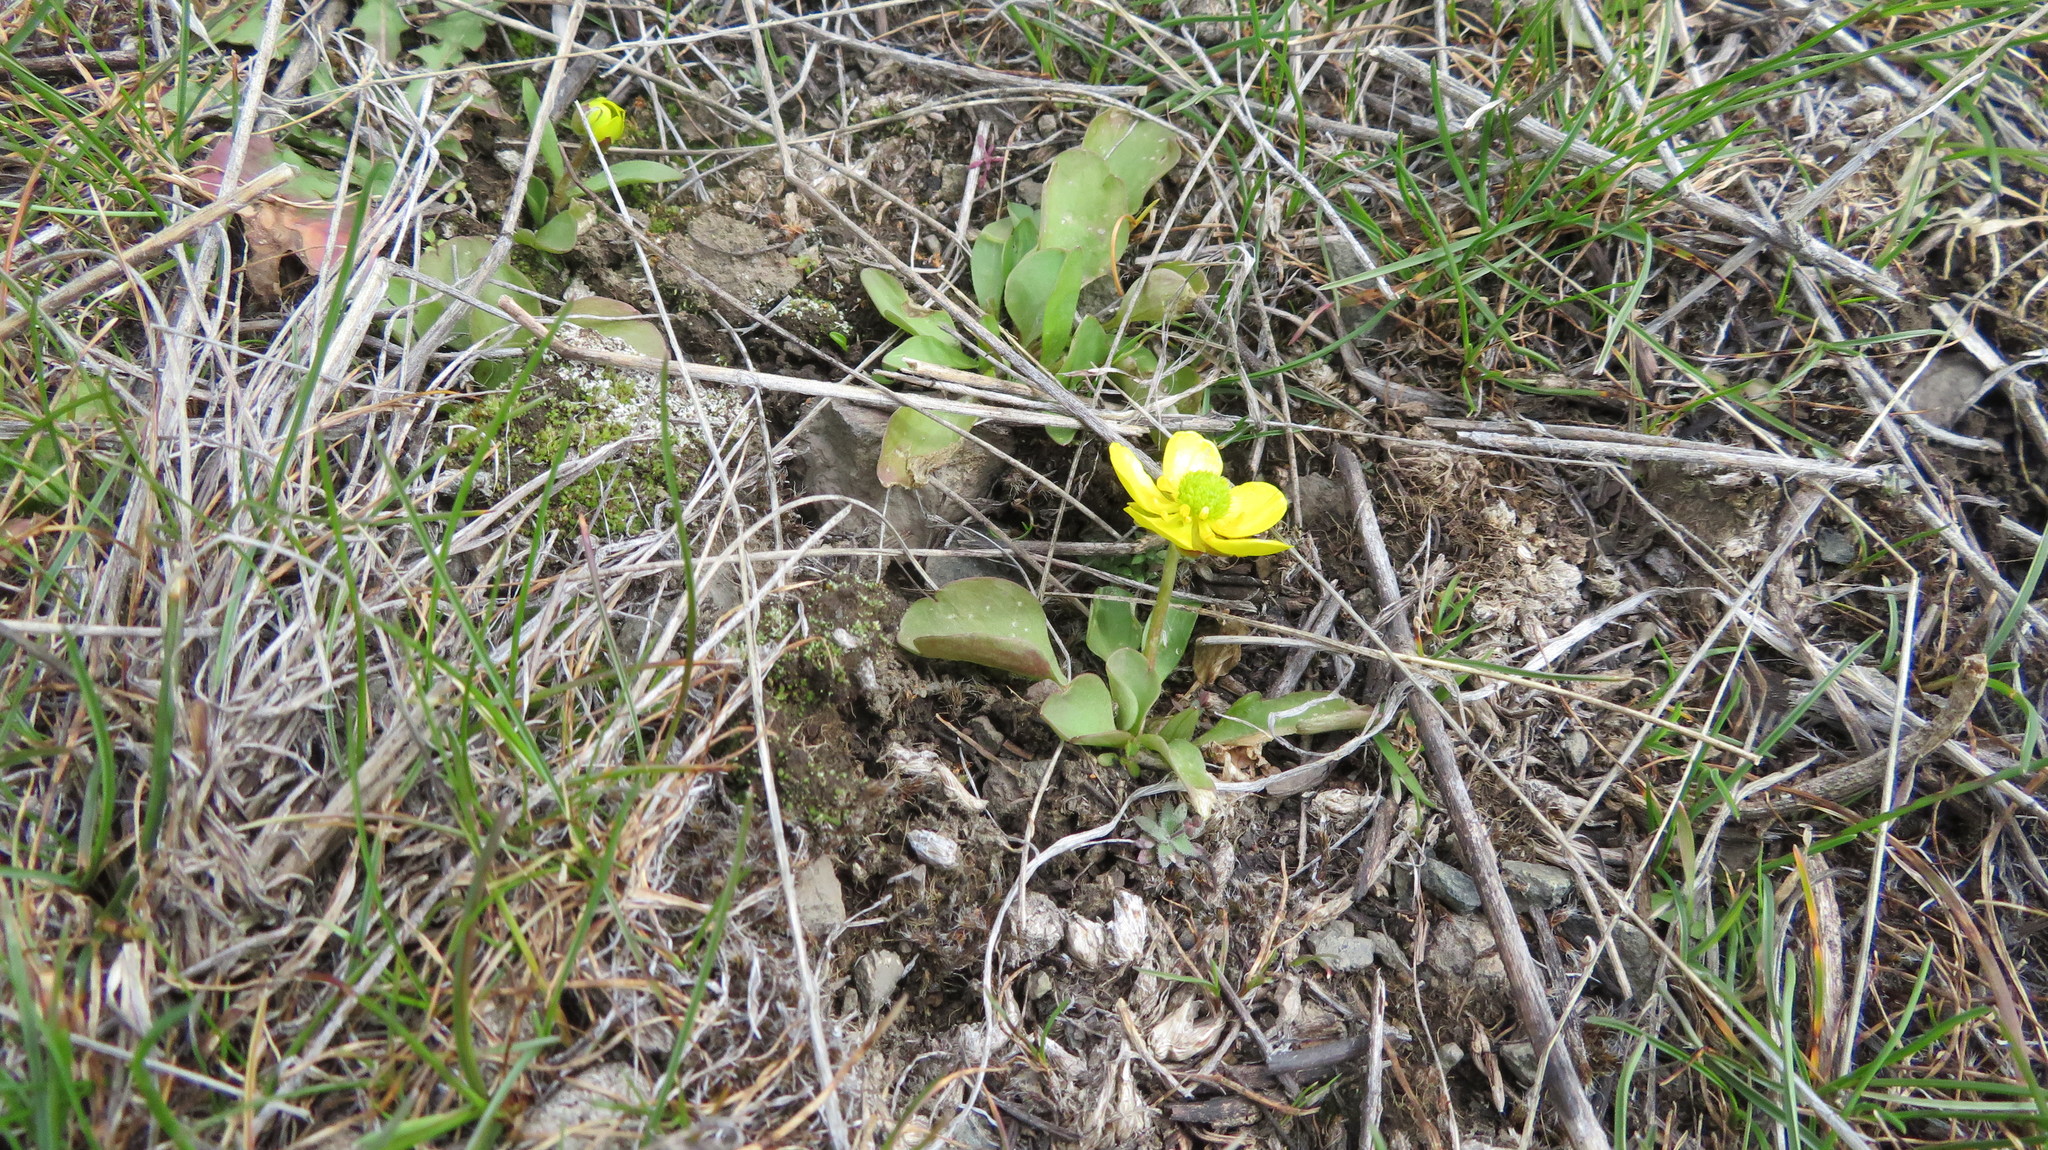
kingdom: Plantae
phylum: Tracheophyta
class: Magnoliopsida
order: Ranunculales
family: Ranunculaceae
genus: Ranunculus
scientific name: Ranunculus glaberrimus
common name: Sagebrush buttercup
